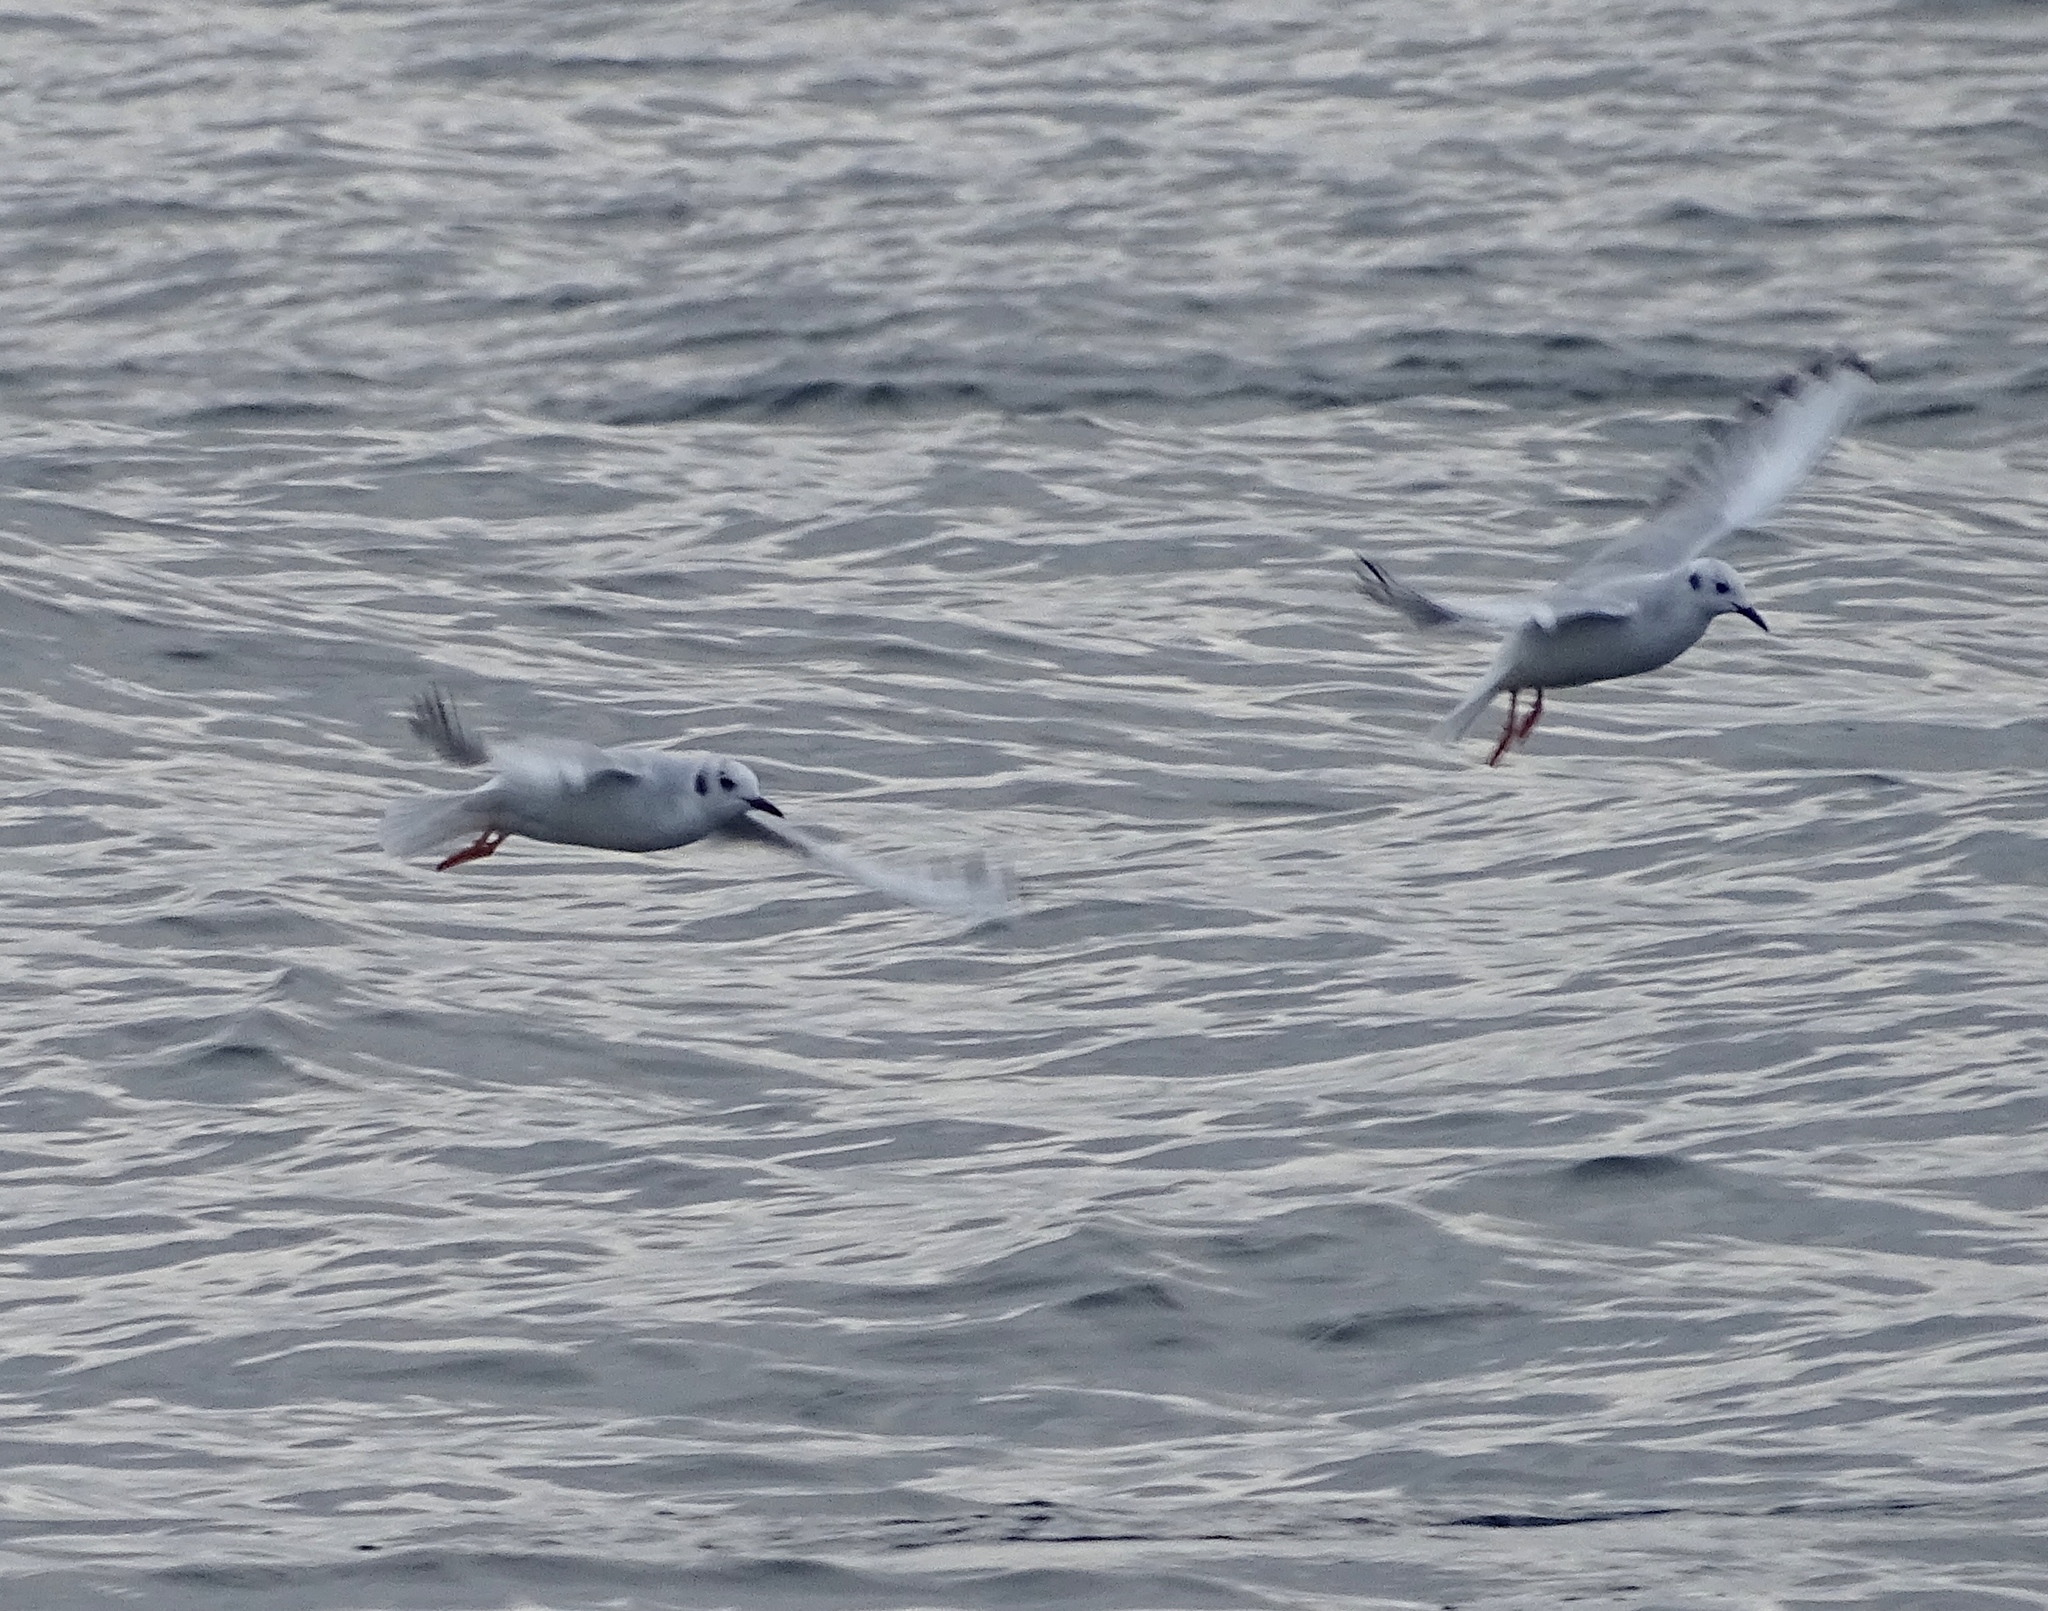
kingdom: Animalia
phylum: Chordata
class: Aves
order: Charadriiformes
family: Laridae
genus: Chroicocephalus
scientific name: Chroicocephalus philadelphia
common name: Bonaparte's gull
